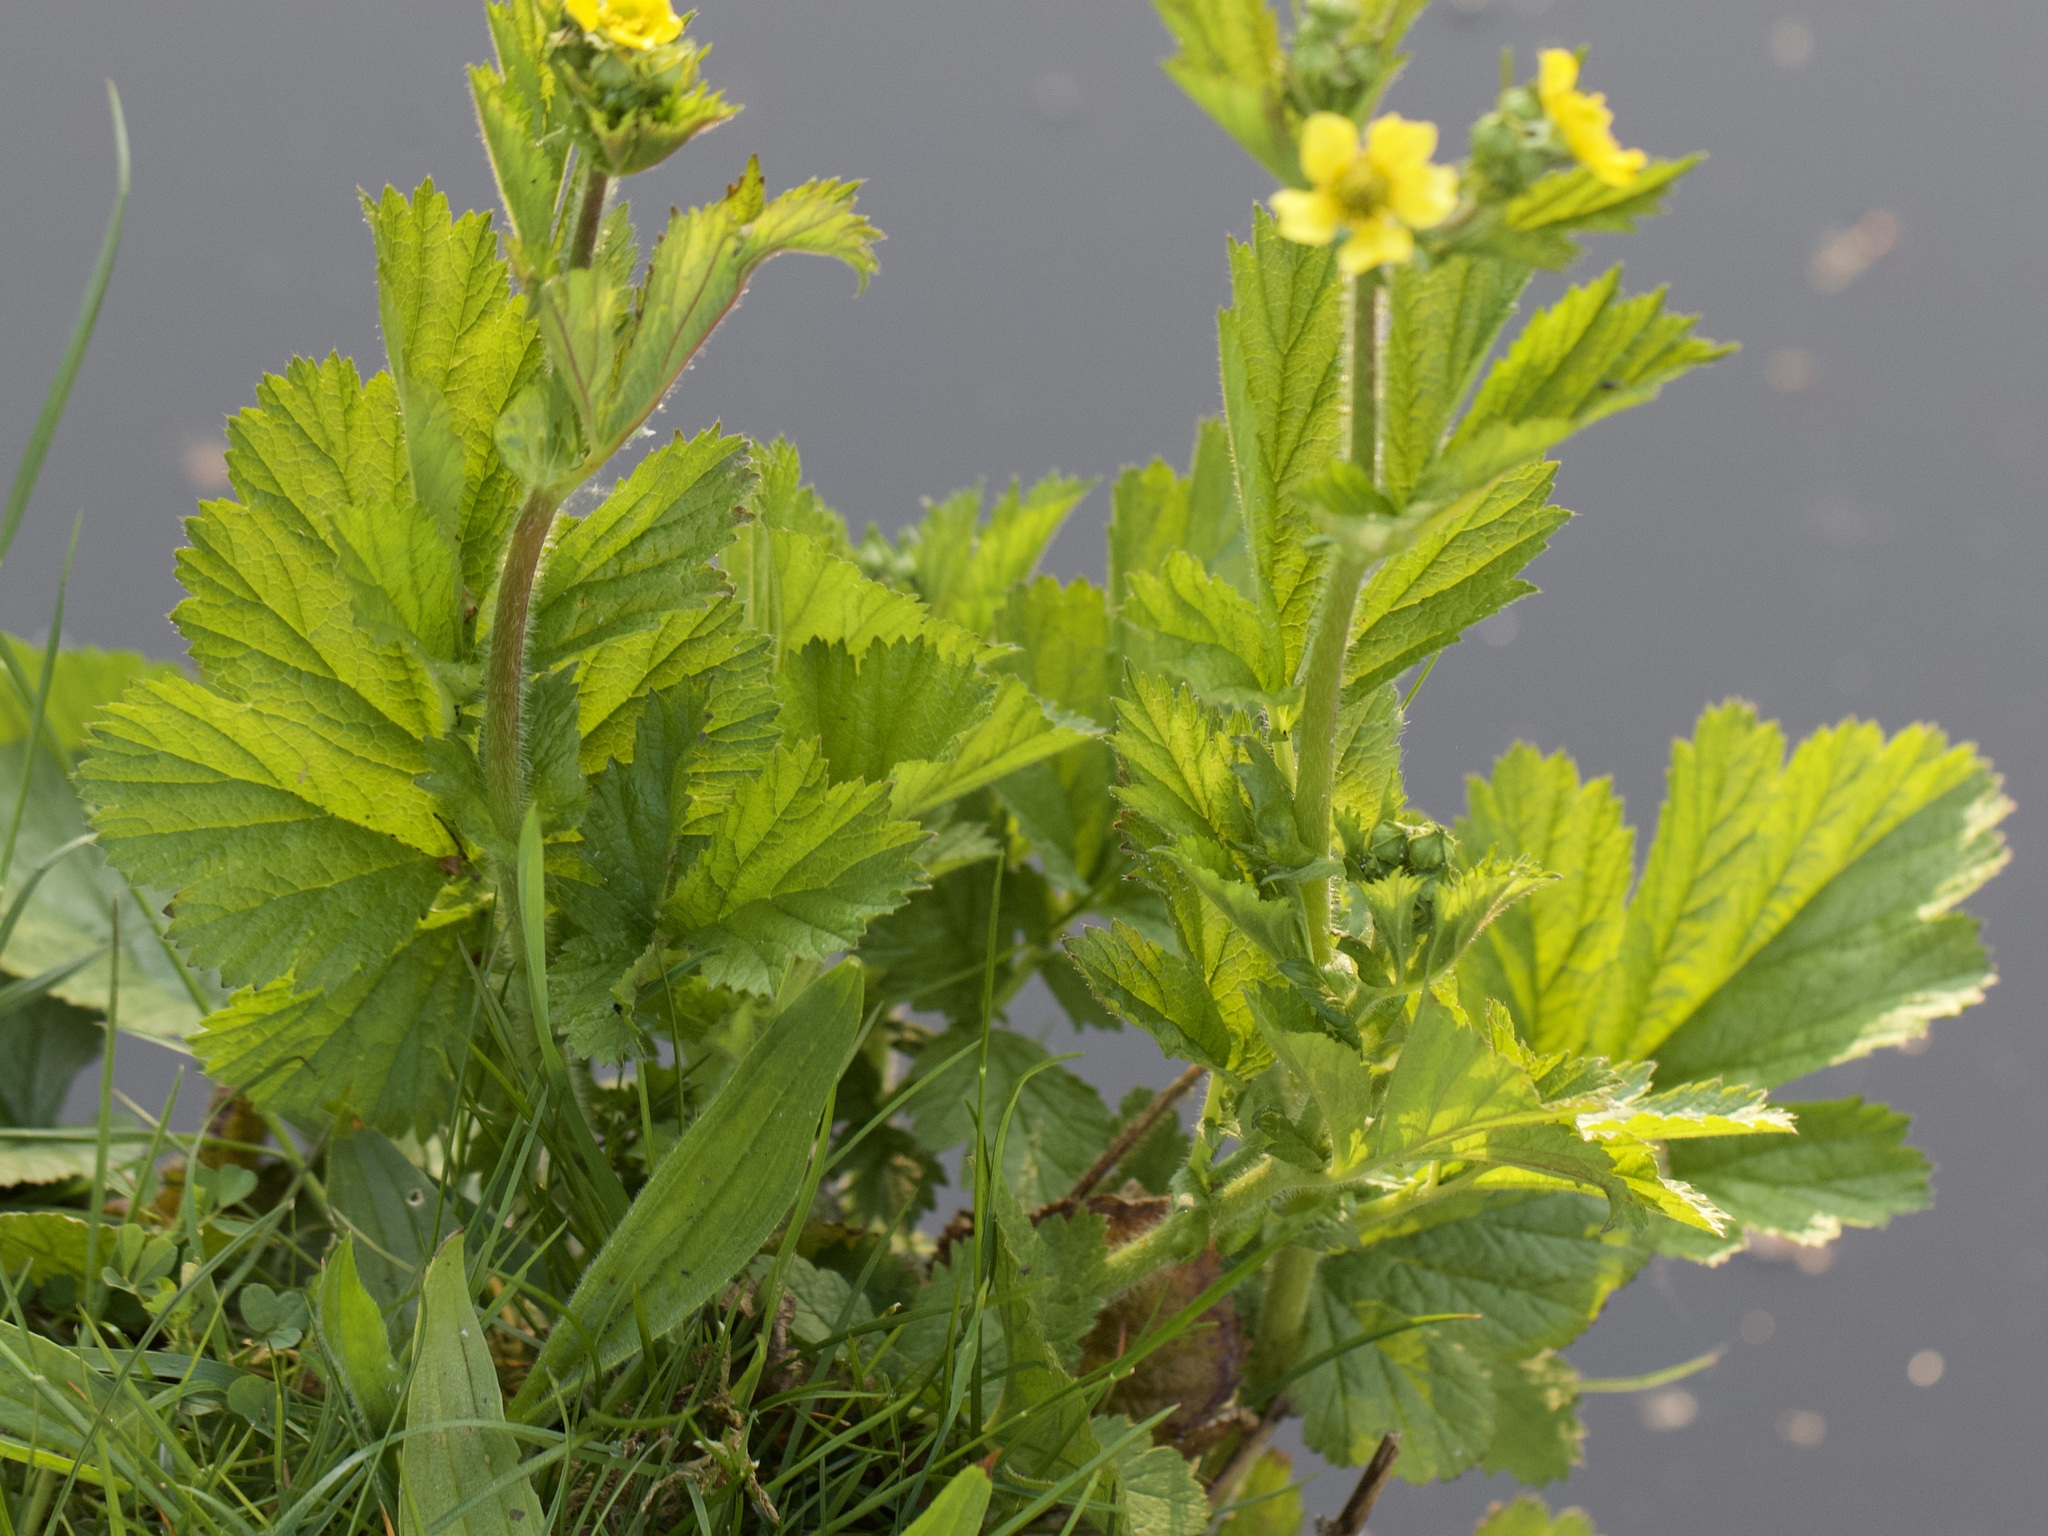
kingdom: Plantae
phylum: Tracheophyta
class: Magnoliopsida
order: Rosales
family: Rosaceae
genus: Geum
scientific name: Geum urbanum
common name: Wood avens
